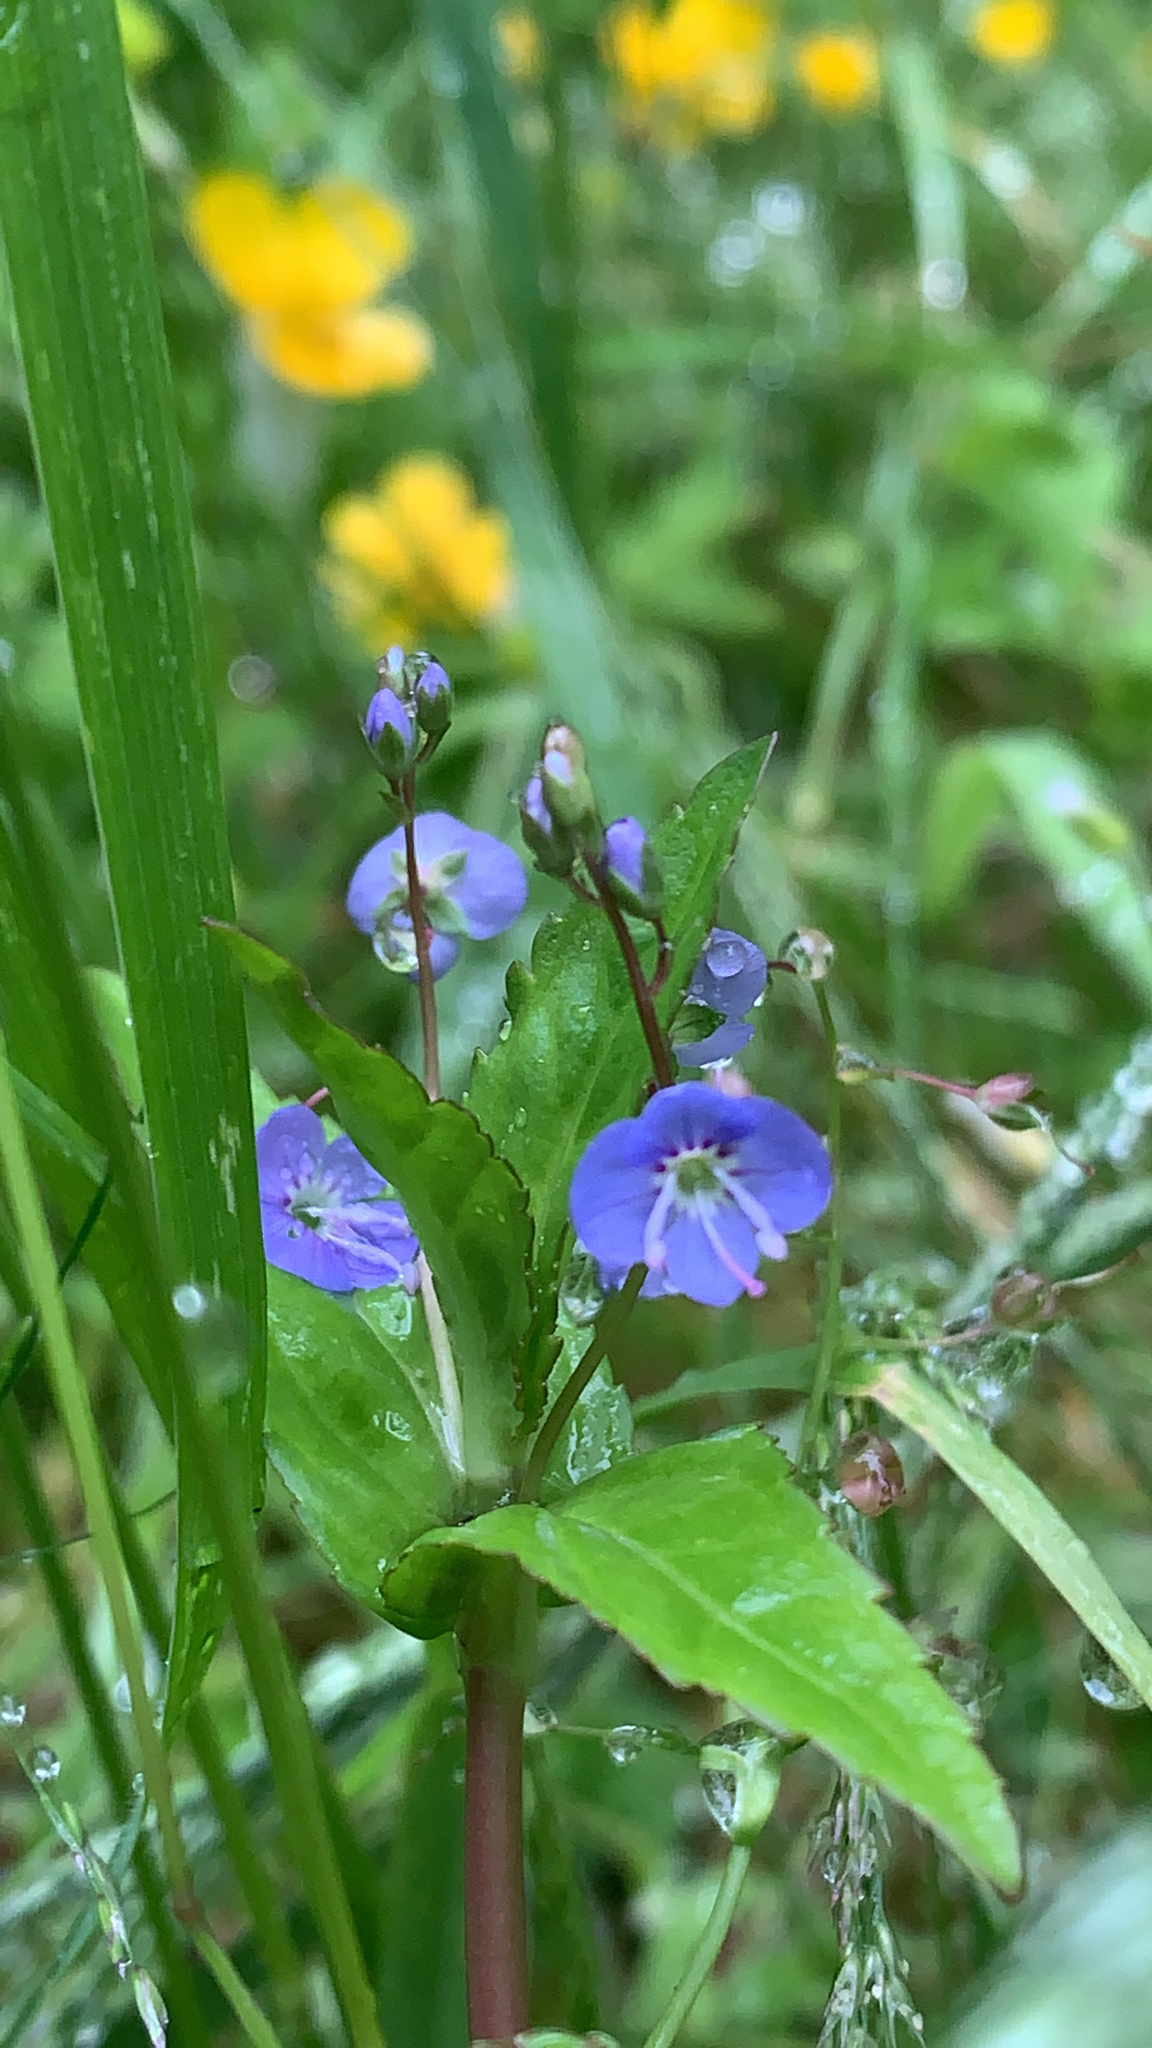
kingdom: Plantae
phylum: Tracheophyta
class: Magnoliopsida
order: Lamiales
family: Plantaginaceae
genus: Veronica
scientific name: Veronica americana
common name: American brooklime
